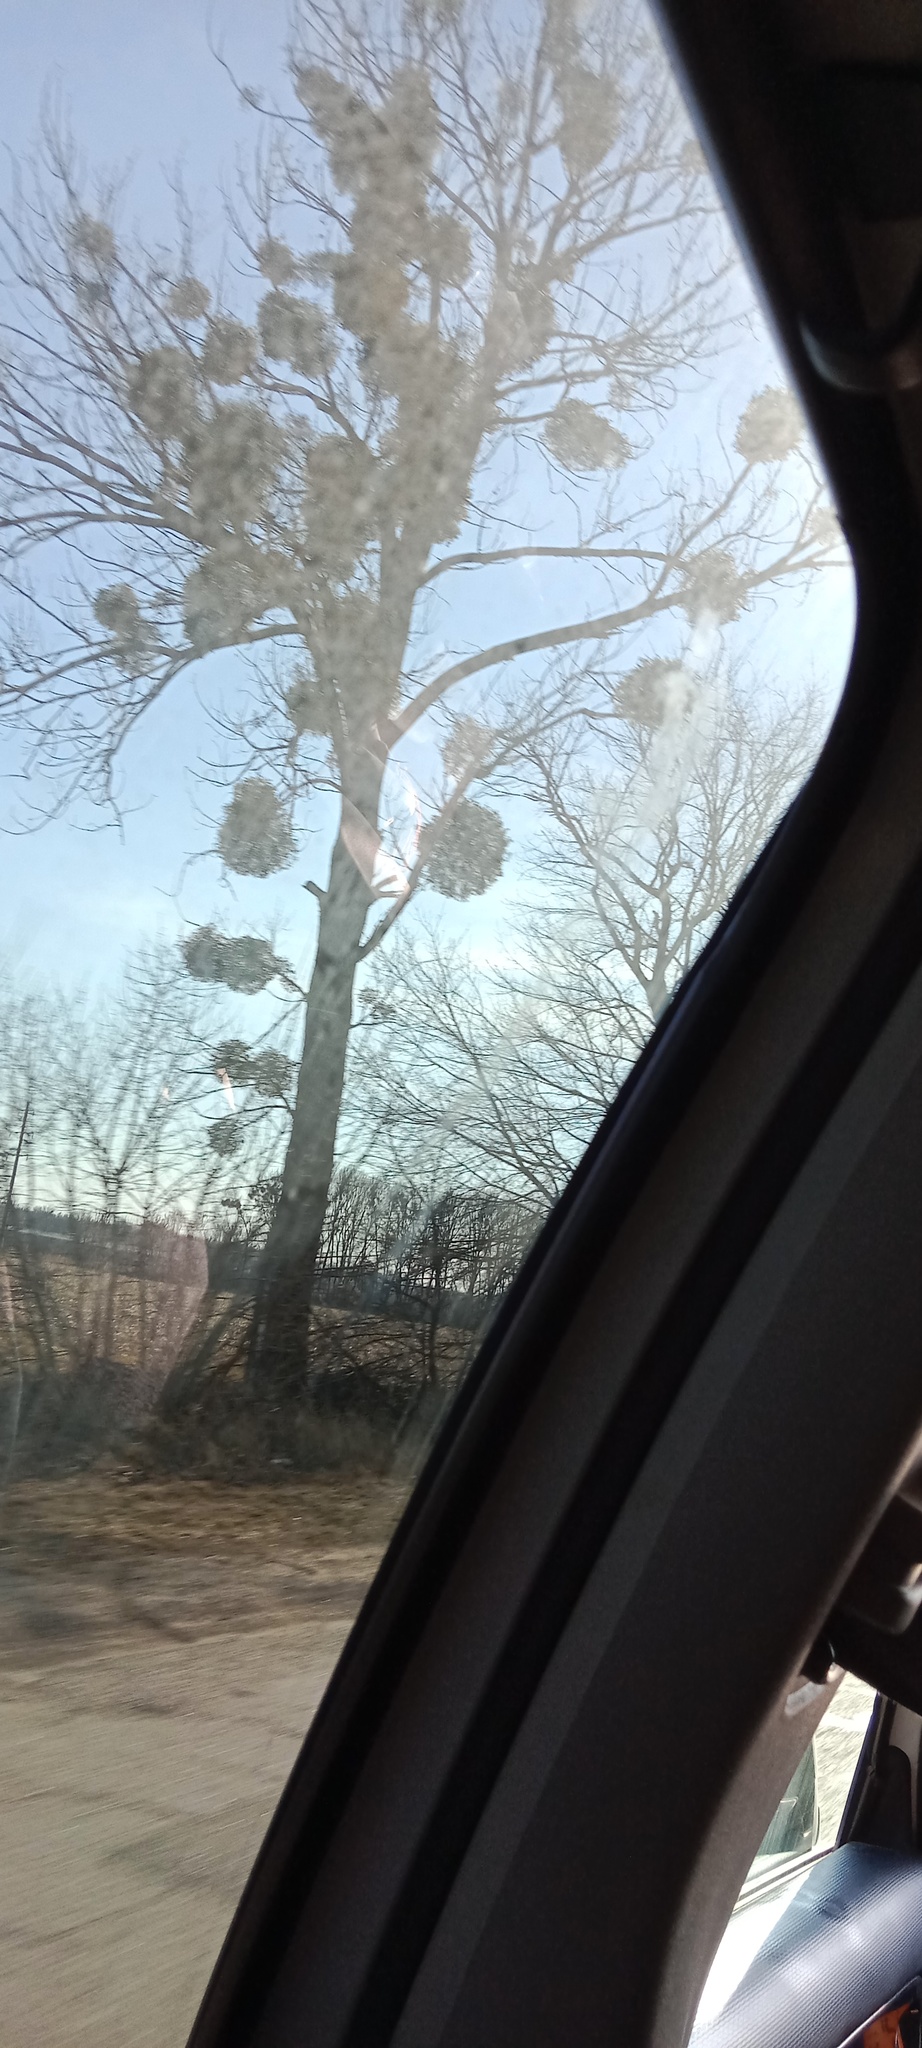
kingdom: Plantae
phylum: Tracheophyta
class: Magnoliopsida
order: Santalales
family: Viscaceae
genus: Viscum
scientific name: Viscum album
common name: Mistletoe
